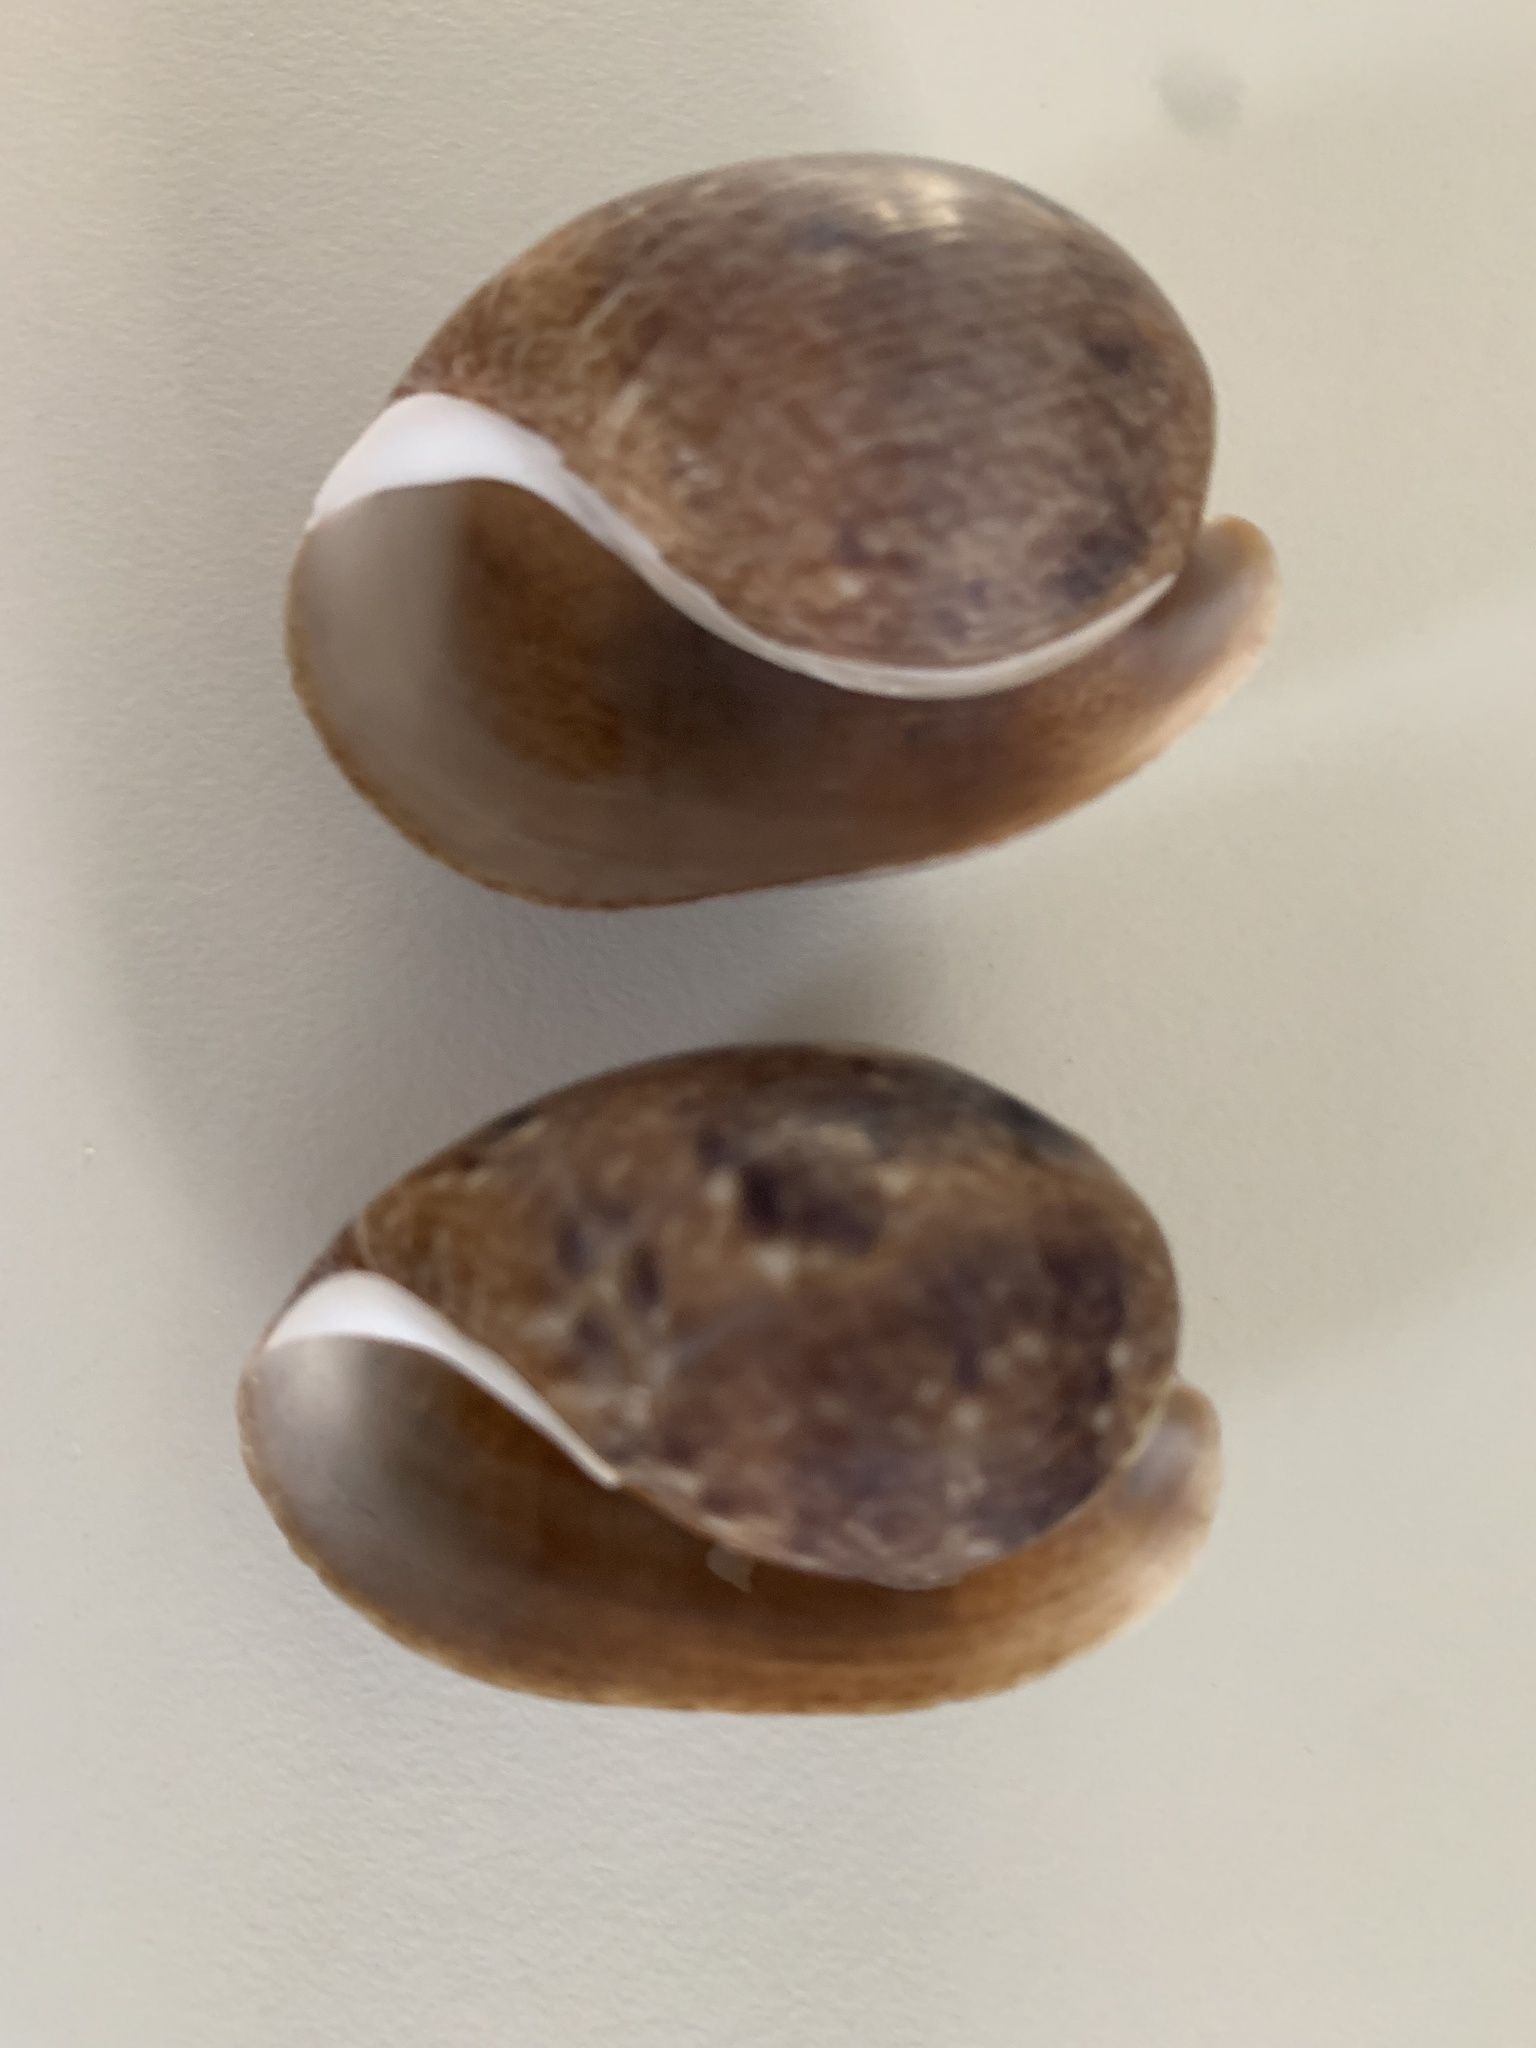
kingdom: Animalia
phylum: Mollusca
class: Gastropoda
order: Cephalaspidea
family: Bullidae
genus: Bulla
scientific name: Bulla arabica
